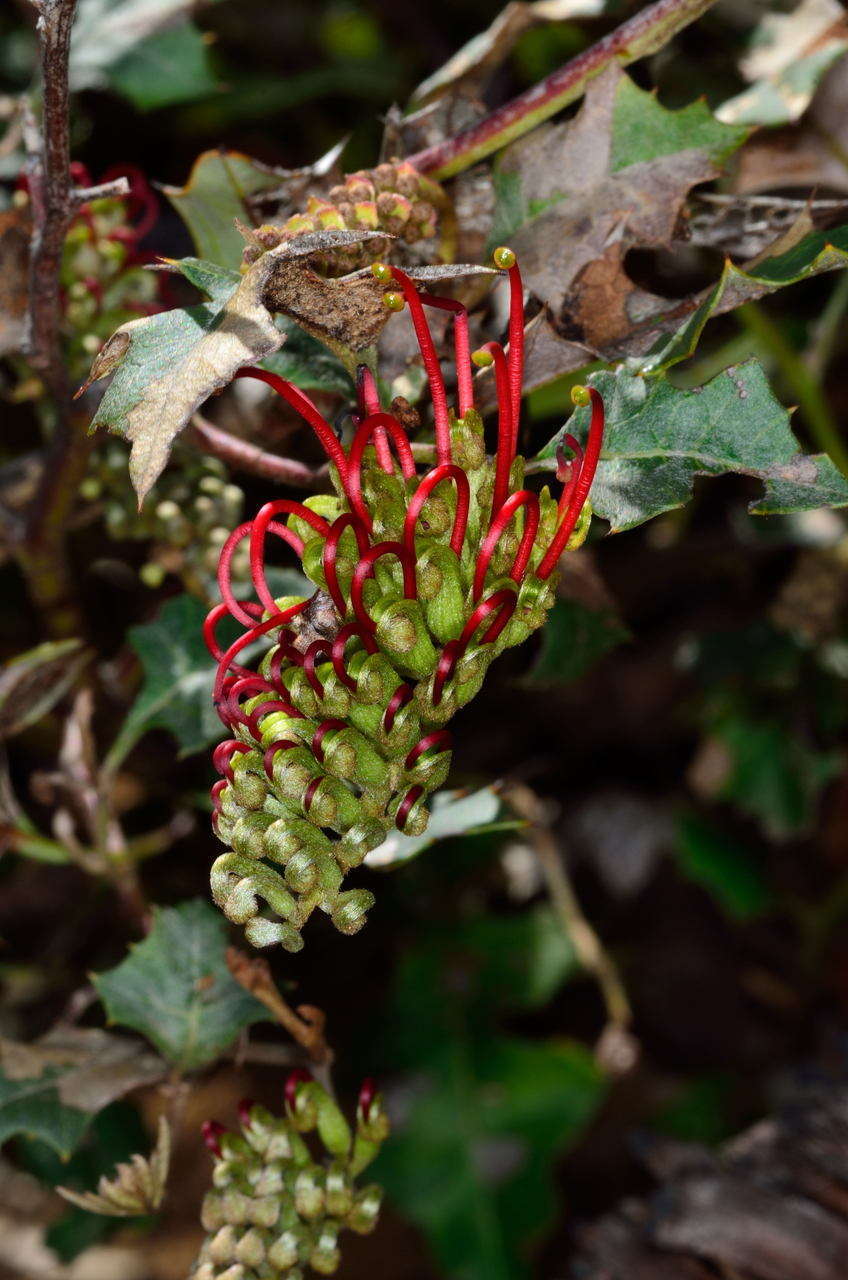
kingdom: Plantae
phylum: Tracheophyta
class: Magnoliopsida
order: Proteales
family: Proteaceae
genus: Grevillea
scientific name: Grevillea steiglitziana
